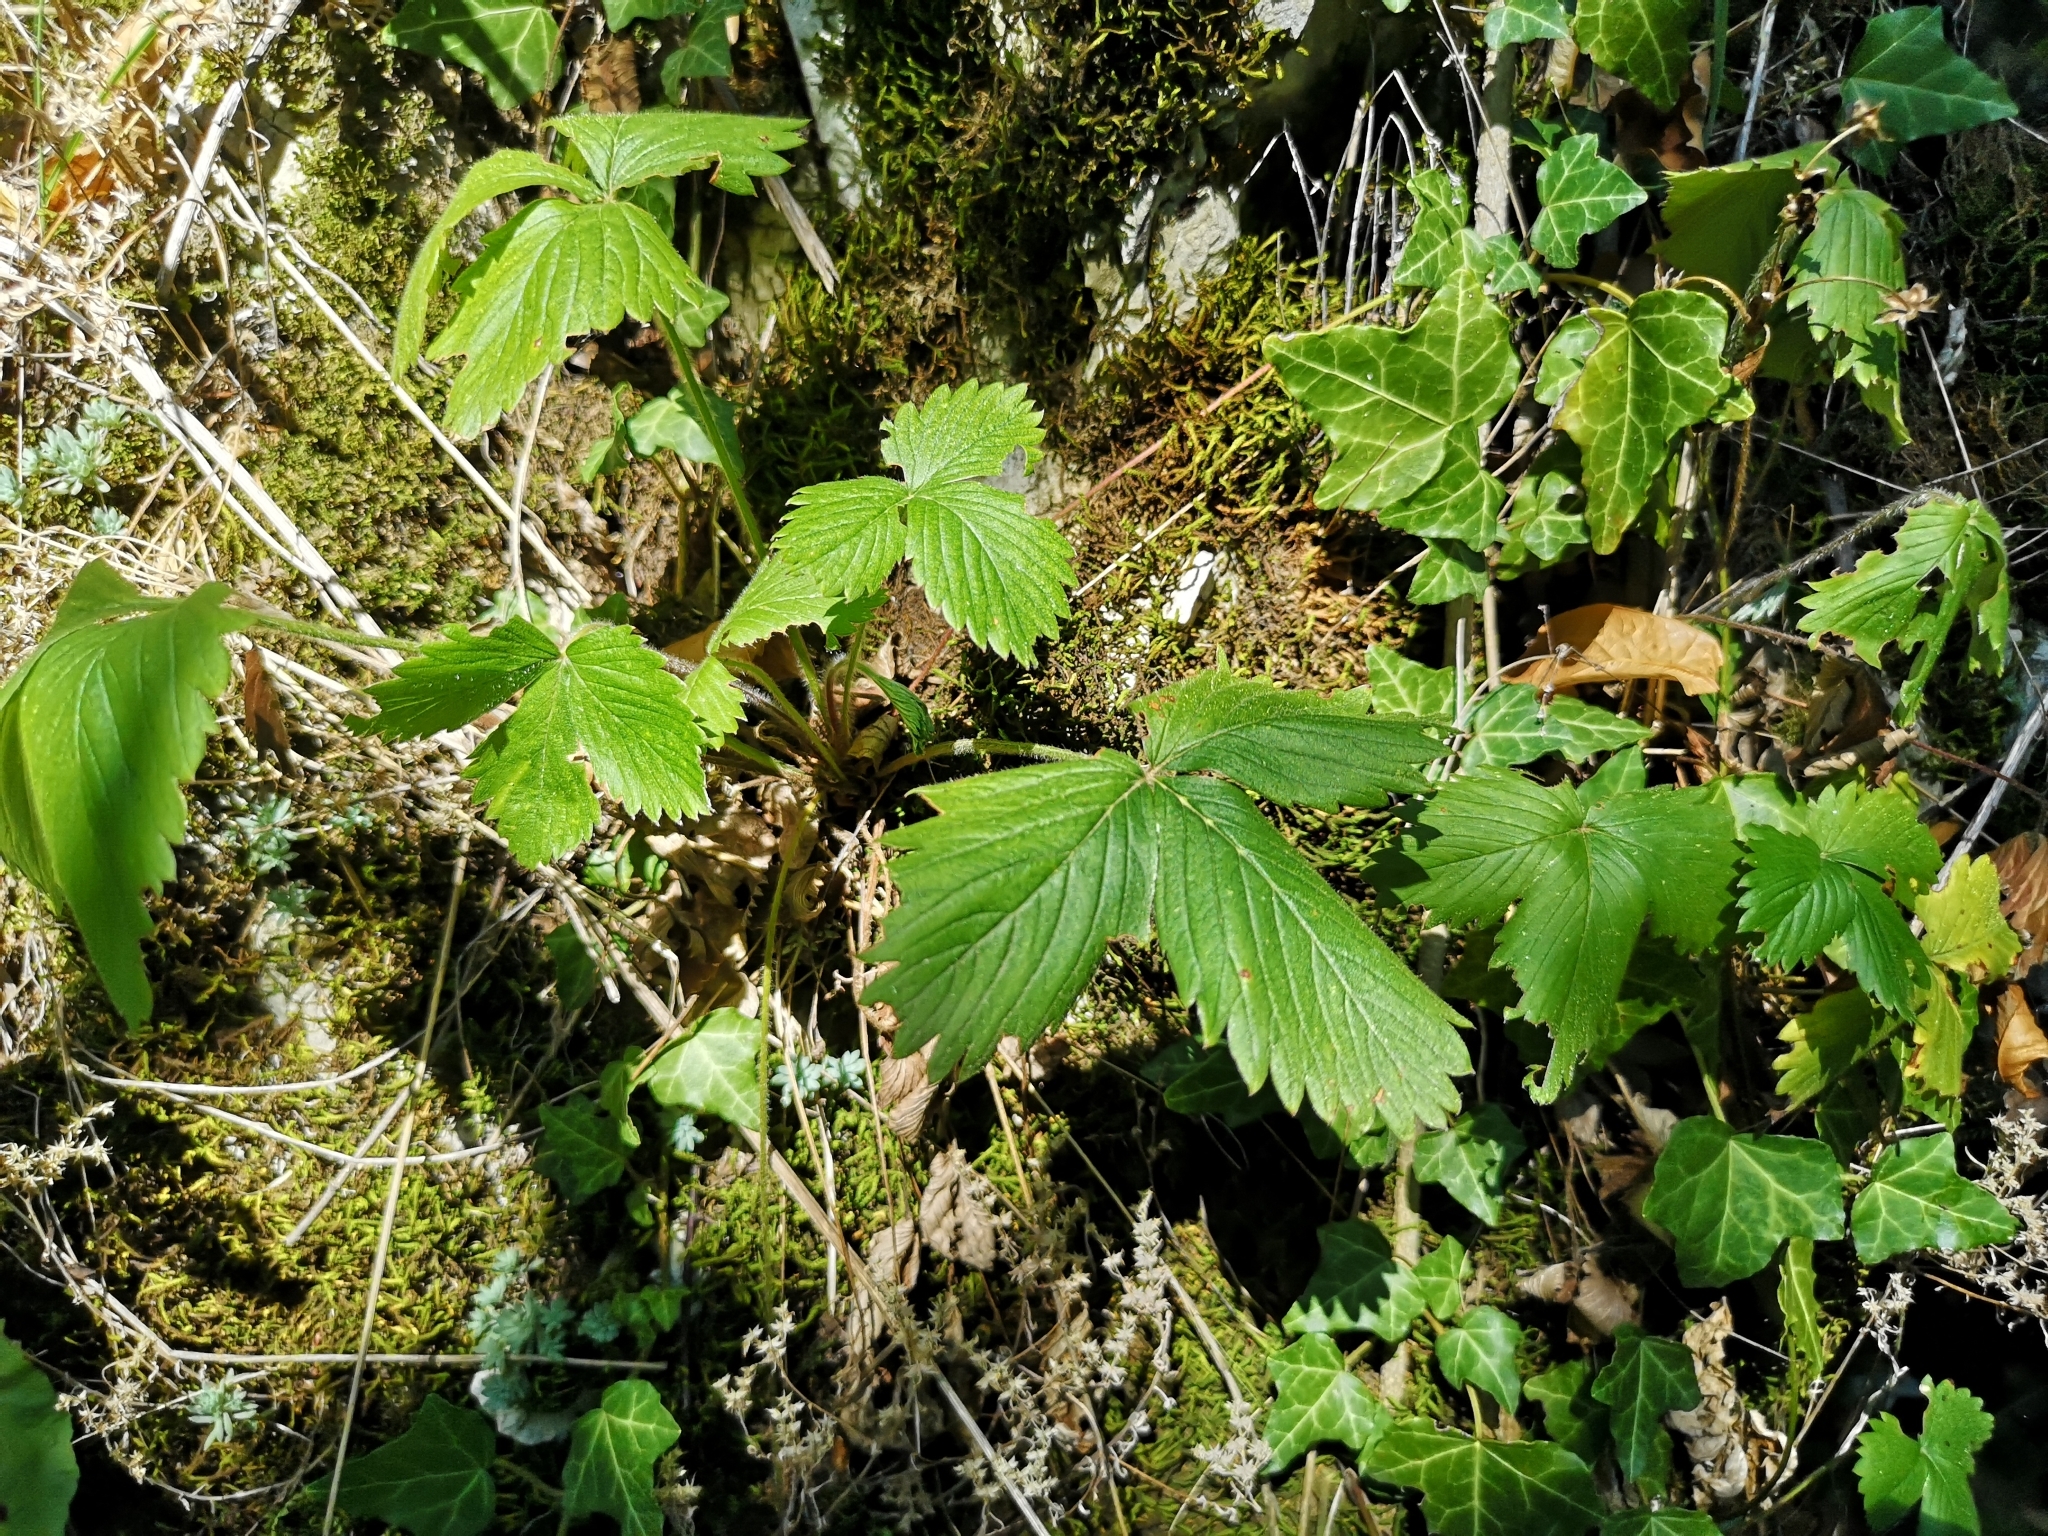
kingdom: Plantae
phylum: Tracheophyta
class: Magnoliopsida
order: Rosales
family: Rosaceae
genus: Fragaria
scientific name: Fragaria vesca
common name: Wild strawberry
